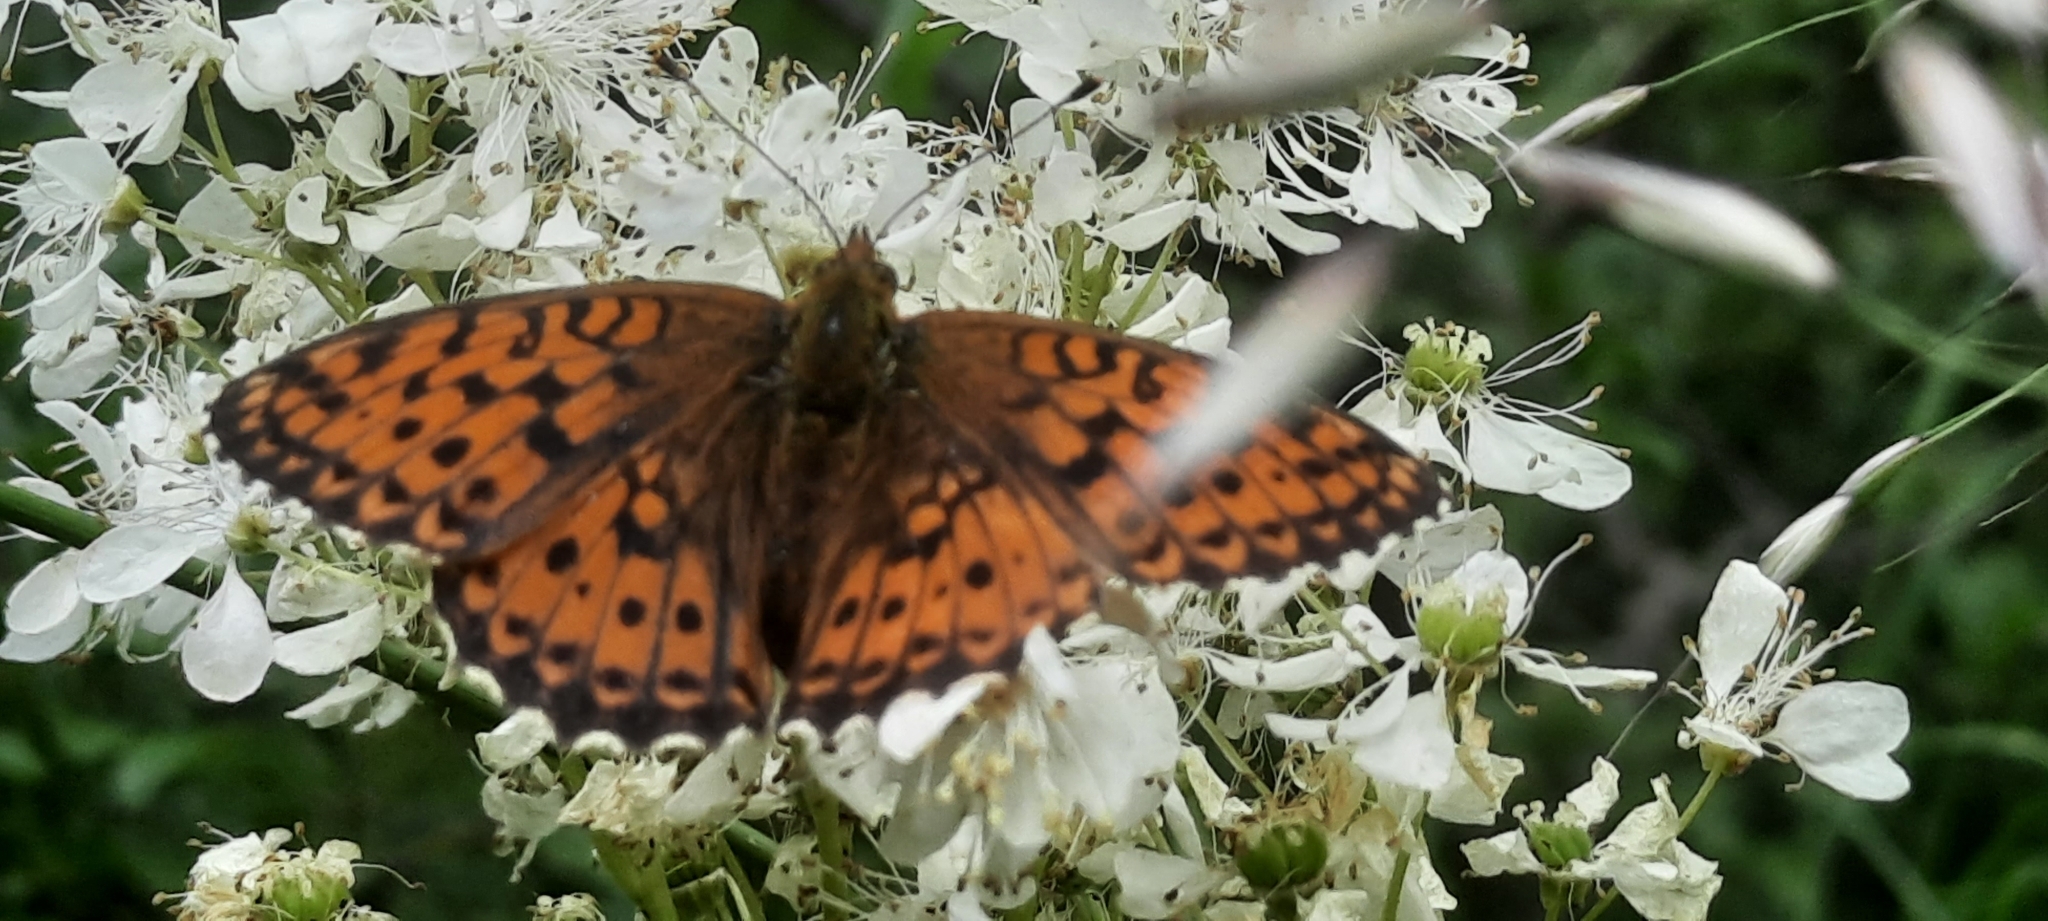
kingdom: Animalia
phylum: Arthropoda
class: Insecta
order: Lepidoptera
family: Nymphalidae
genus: Brenthis
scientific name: Brenthis ino
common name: Lesser marbled fritillary
